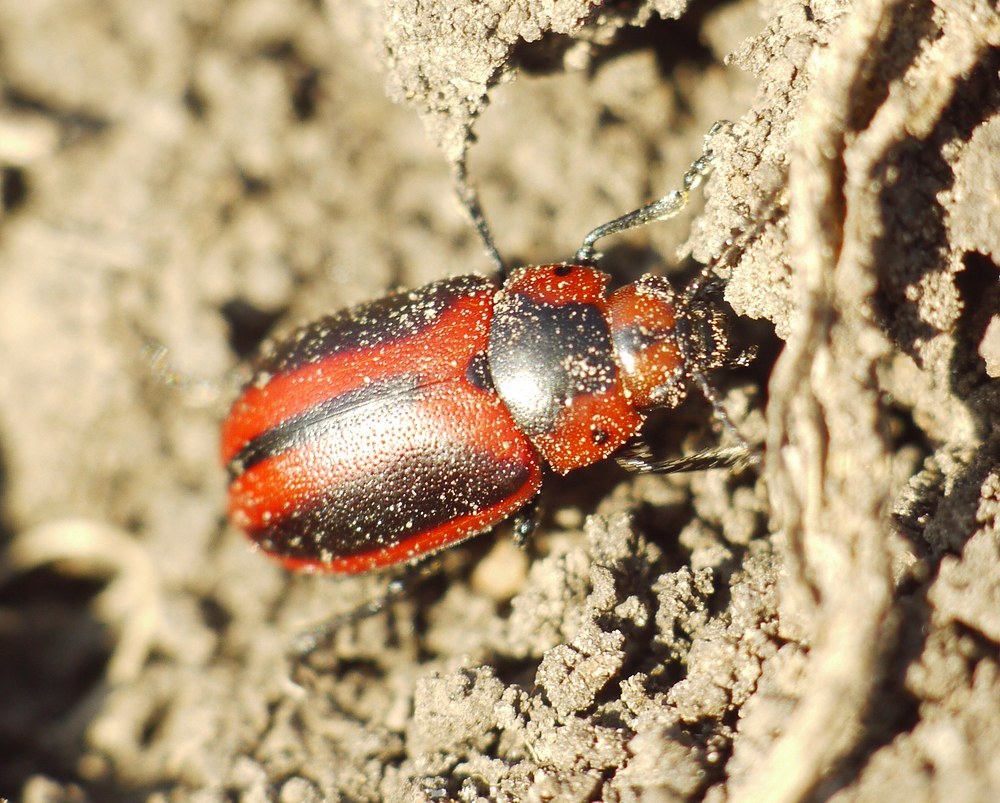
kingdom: Animalia
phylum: Arthropoda
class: Insecta
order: Coleoptera
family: Chrysomelidae
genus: Entomoscelis
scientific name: Entomoscelis adonidis
